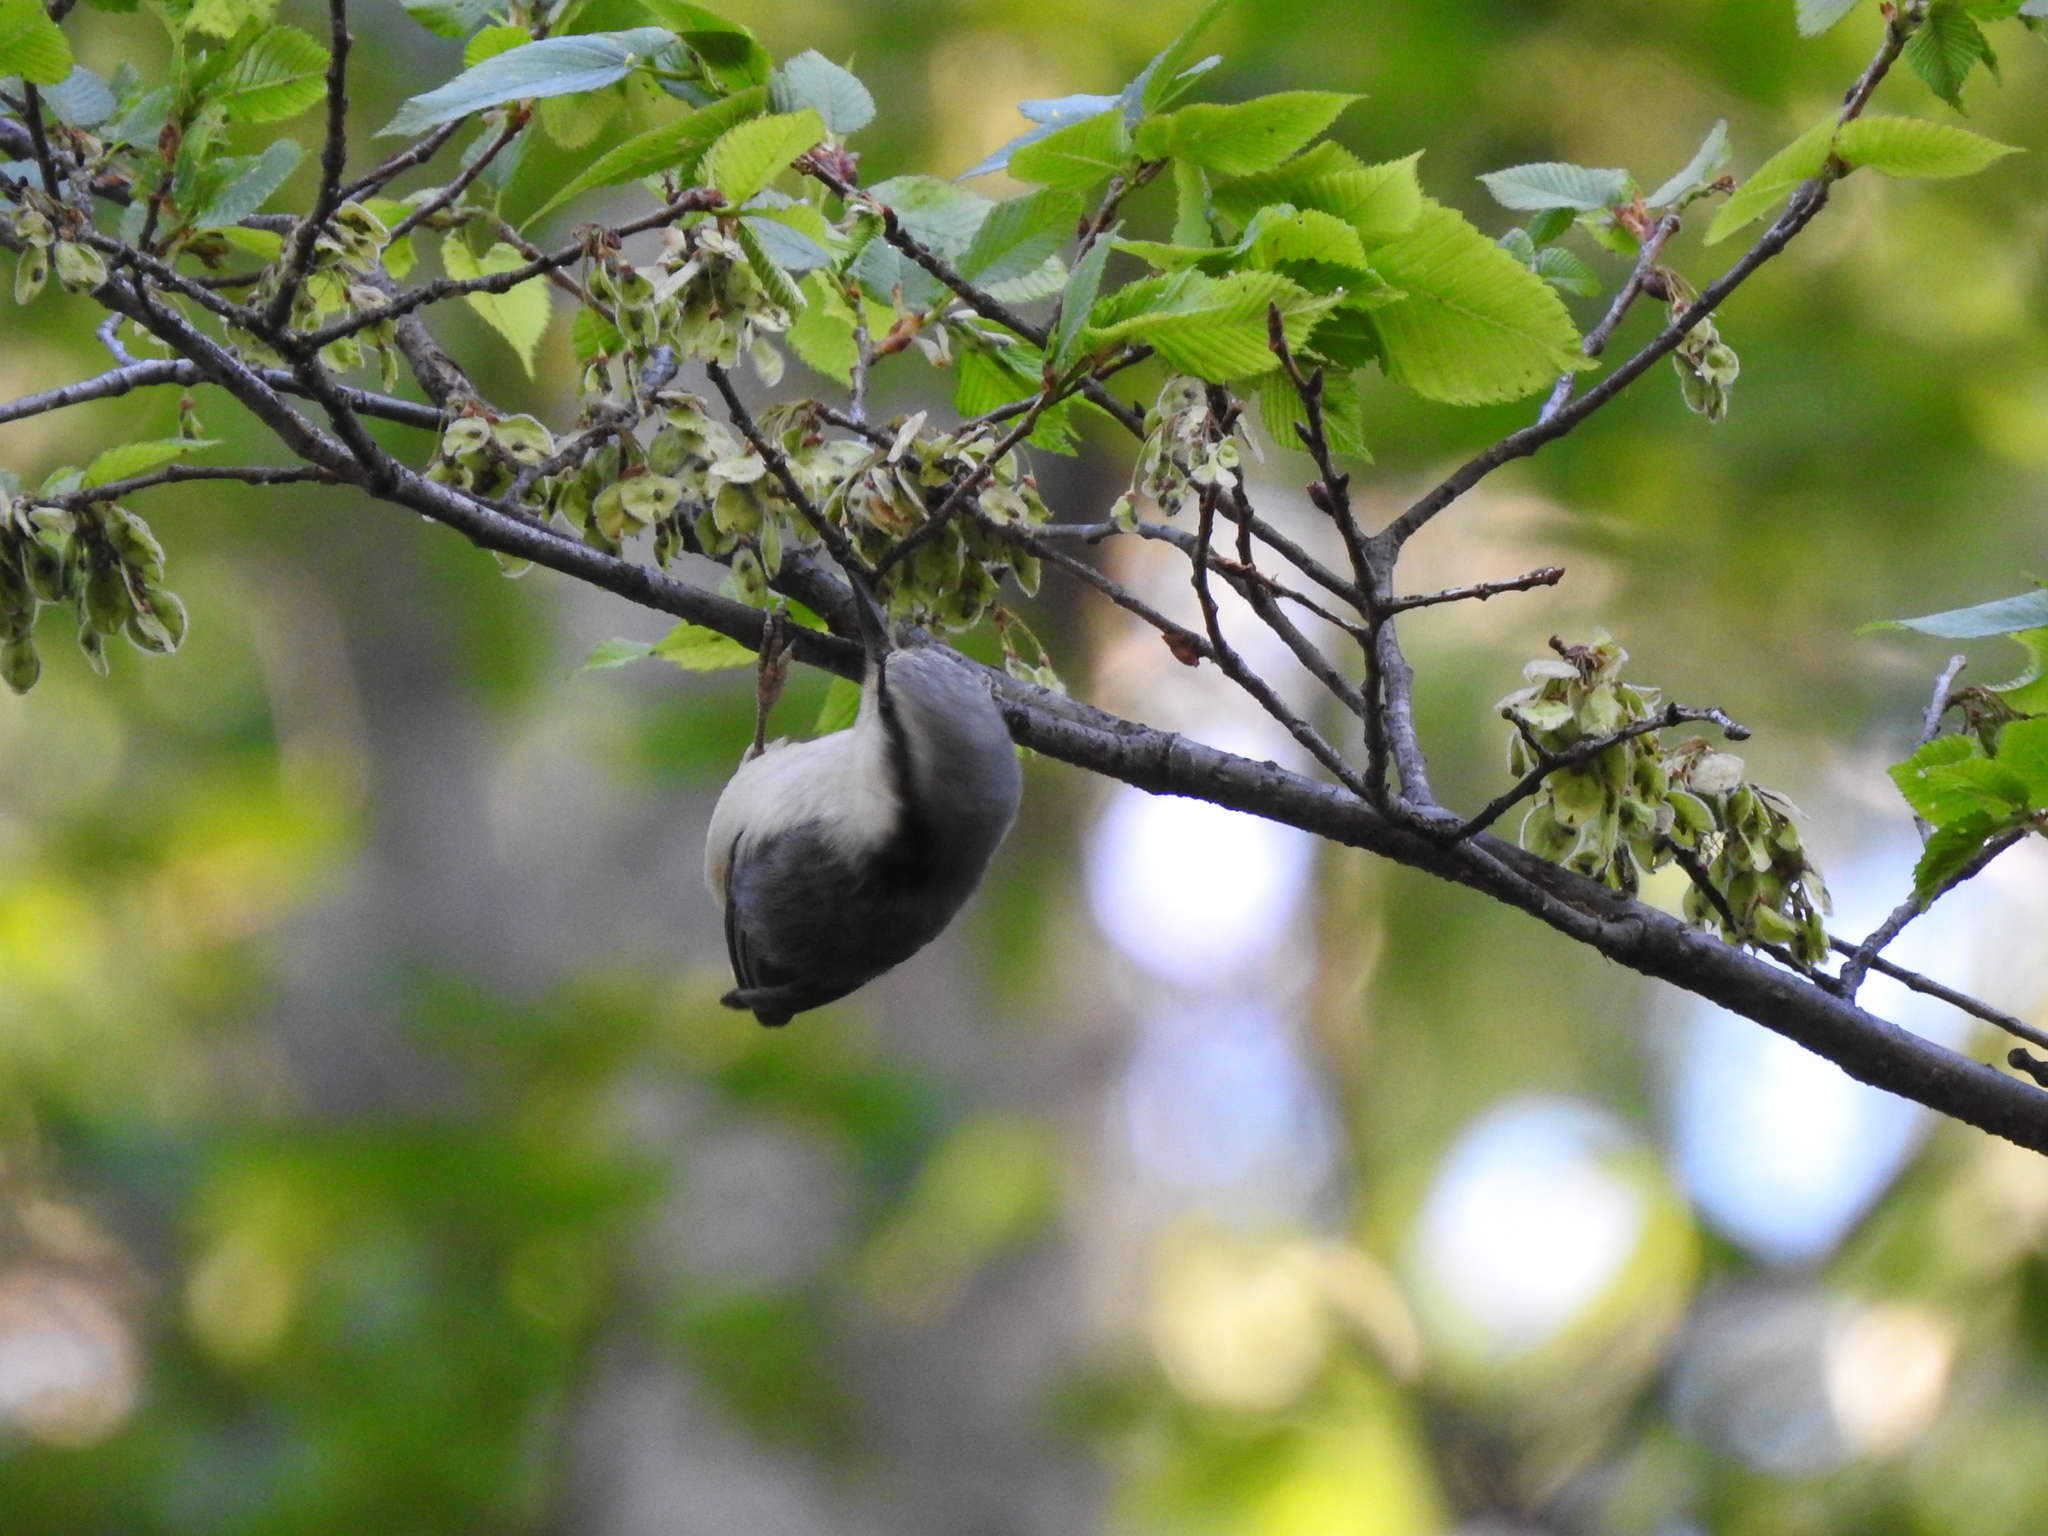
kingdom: Animalia
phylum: Chordata
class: Aves
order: Passeriformes
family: Sittidae
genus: Sitta
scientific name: Sitta europaea
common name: Eurasian nuthatch
